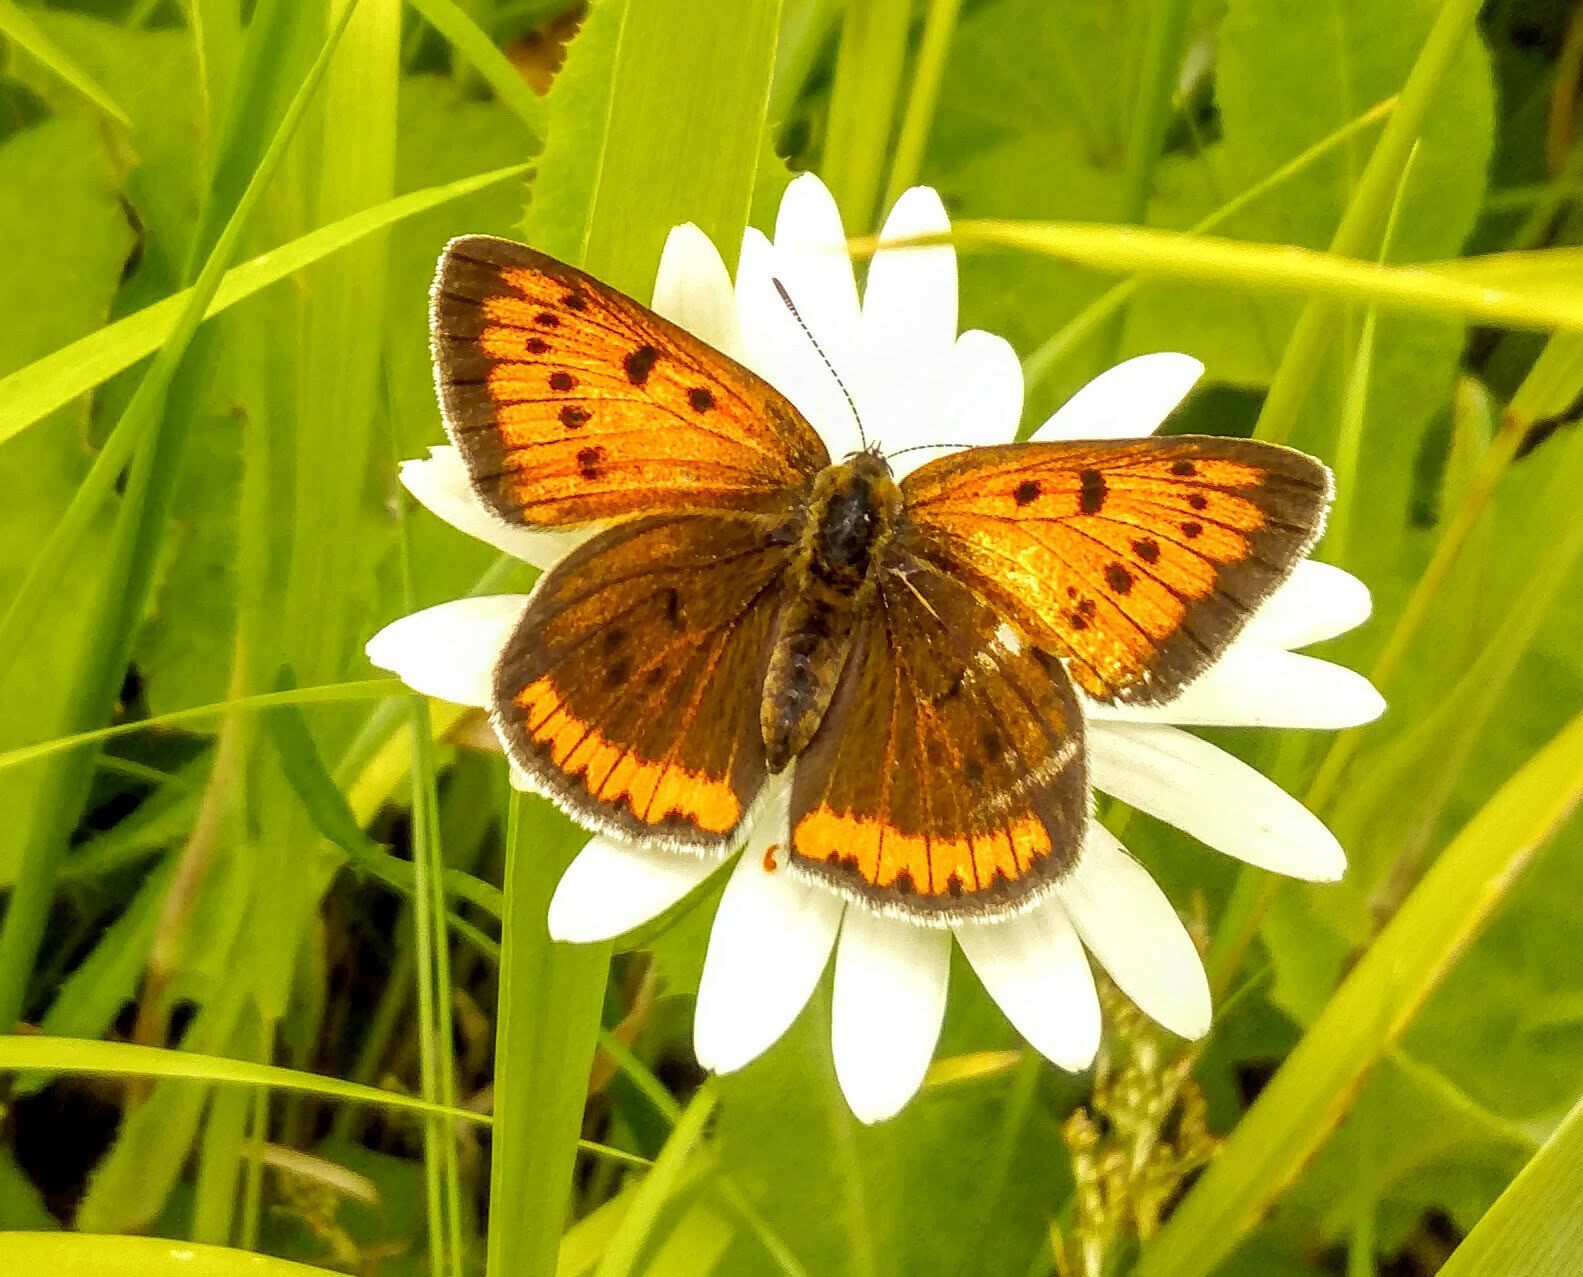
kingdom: Animalia
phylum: Arthropoda
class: Insecta
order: Lepidoptera
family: Lycaenidae
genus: Lycaena
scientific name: Lycaena dispar
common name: Large copper
